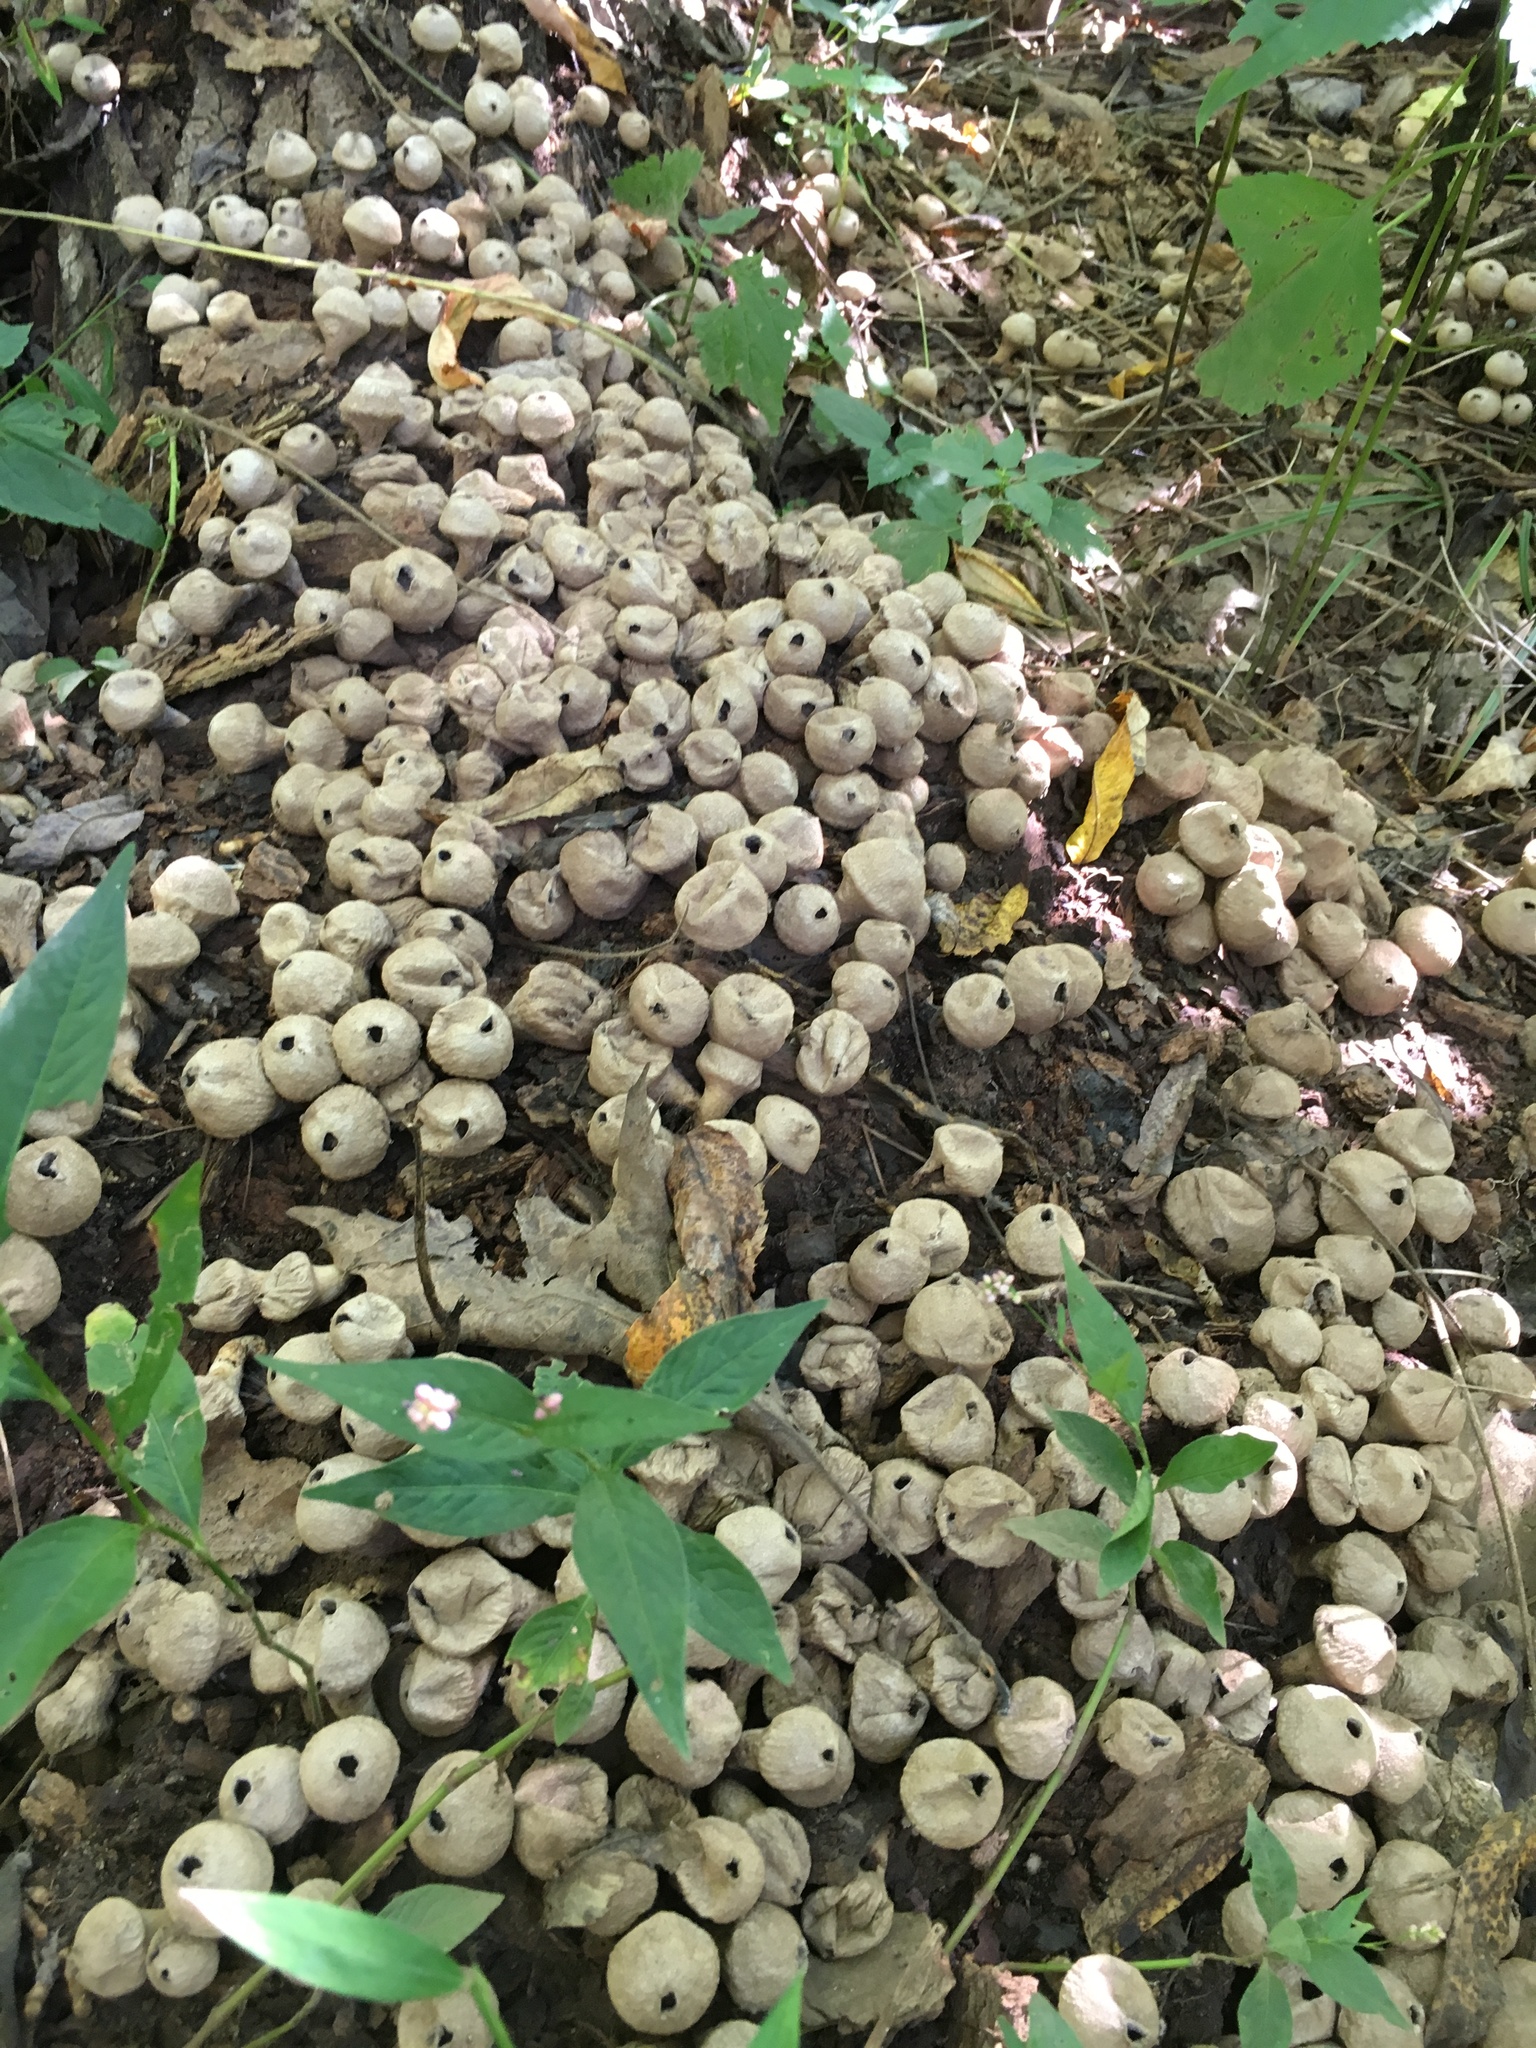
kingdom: Fungi
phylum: Basidiomycota
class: Agaricomycetes
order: Agaricales
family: Lycoperdaceae
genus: Apioperdon
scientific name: Apioperdon pyriforme
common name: Pear-shaped puffball
